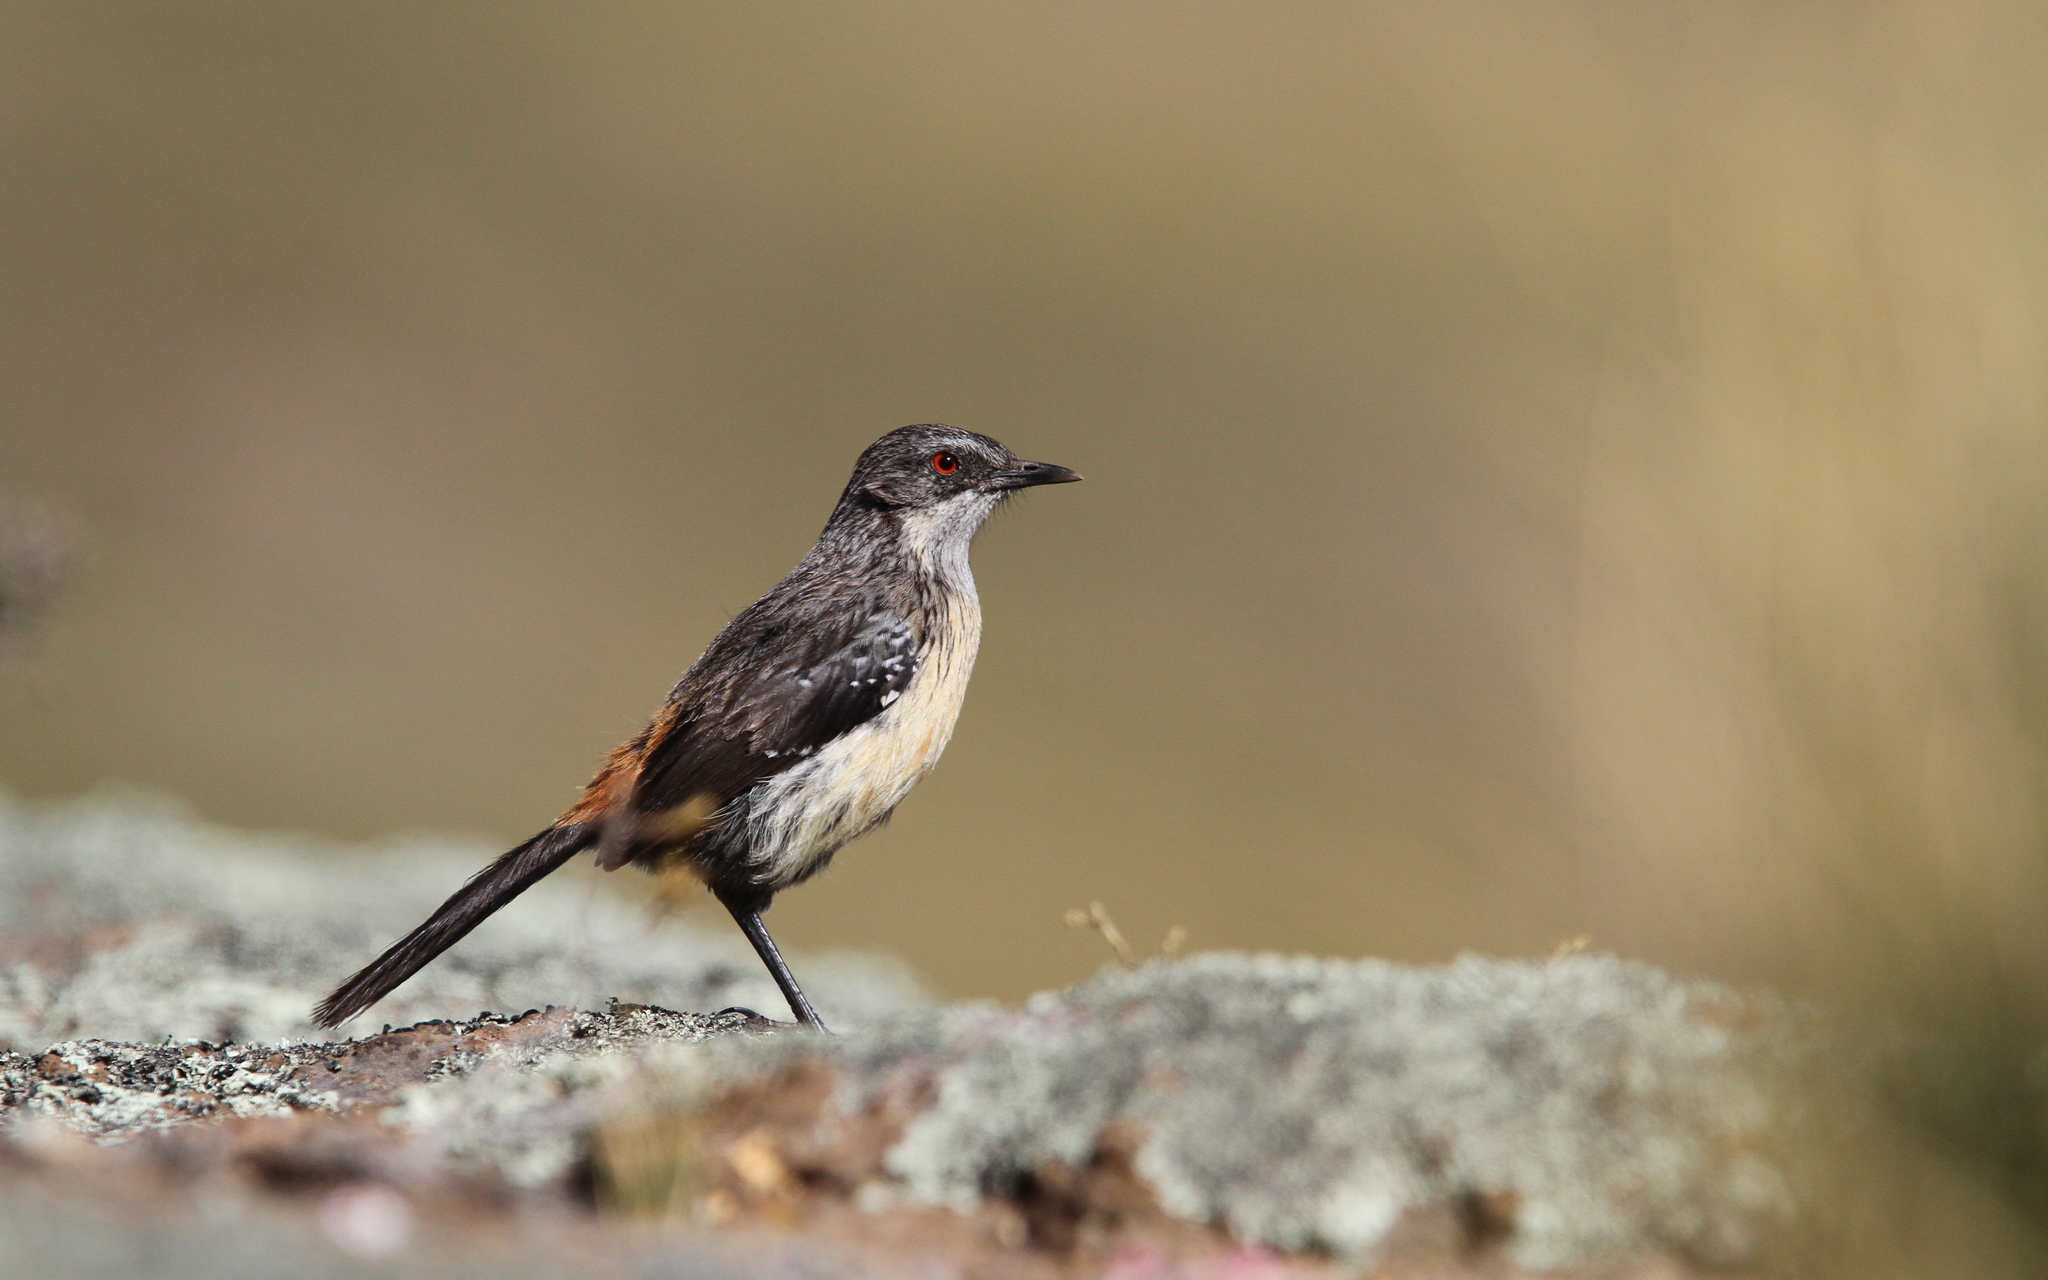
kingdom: Animalia
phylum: Chordata
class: Aves
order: Passeriformes
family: Chaetopidae
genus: Chaetops
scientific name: Chaetops aurantius
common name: Drakensberg rockjumper
